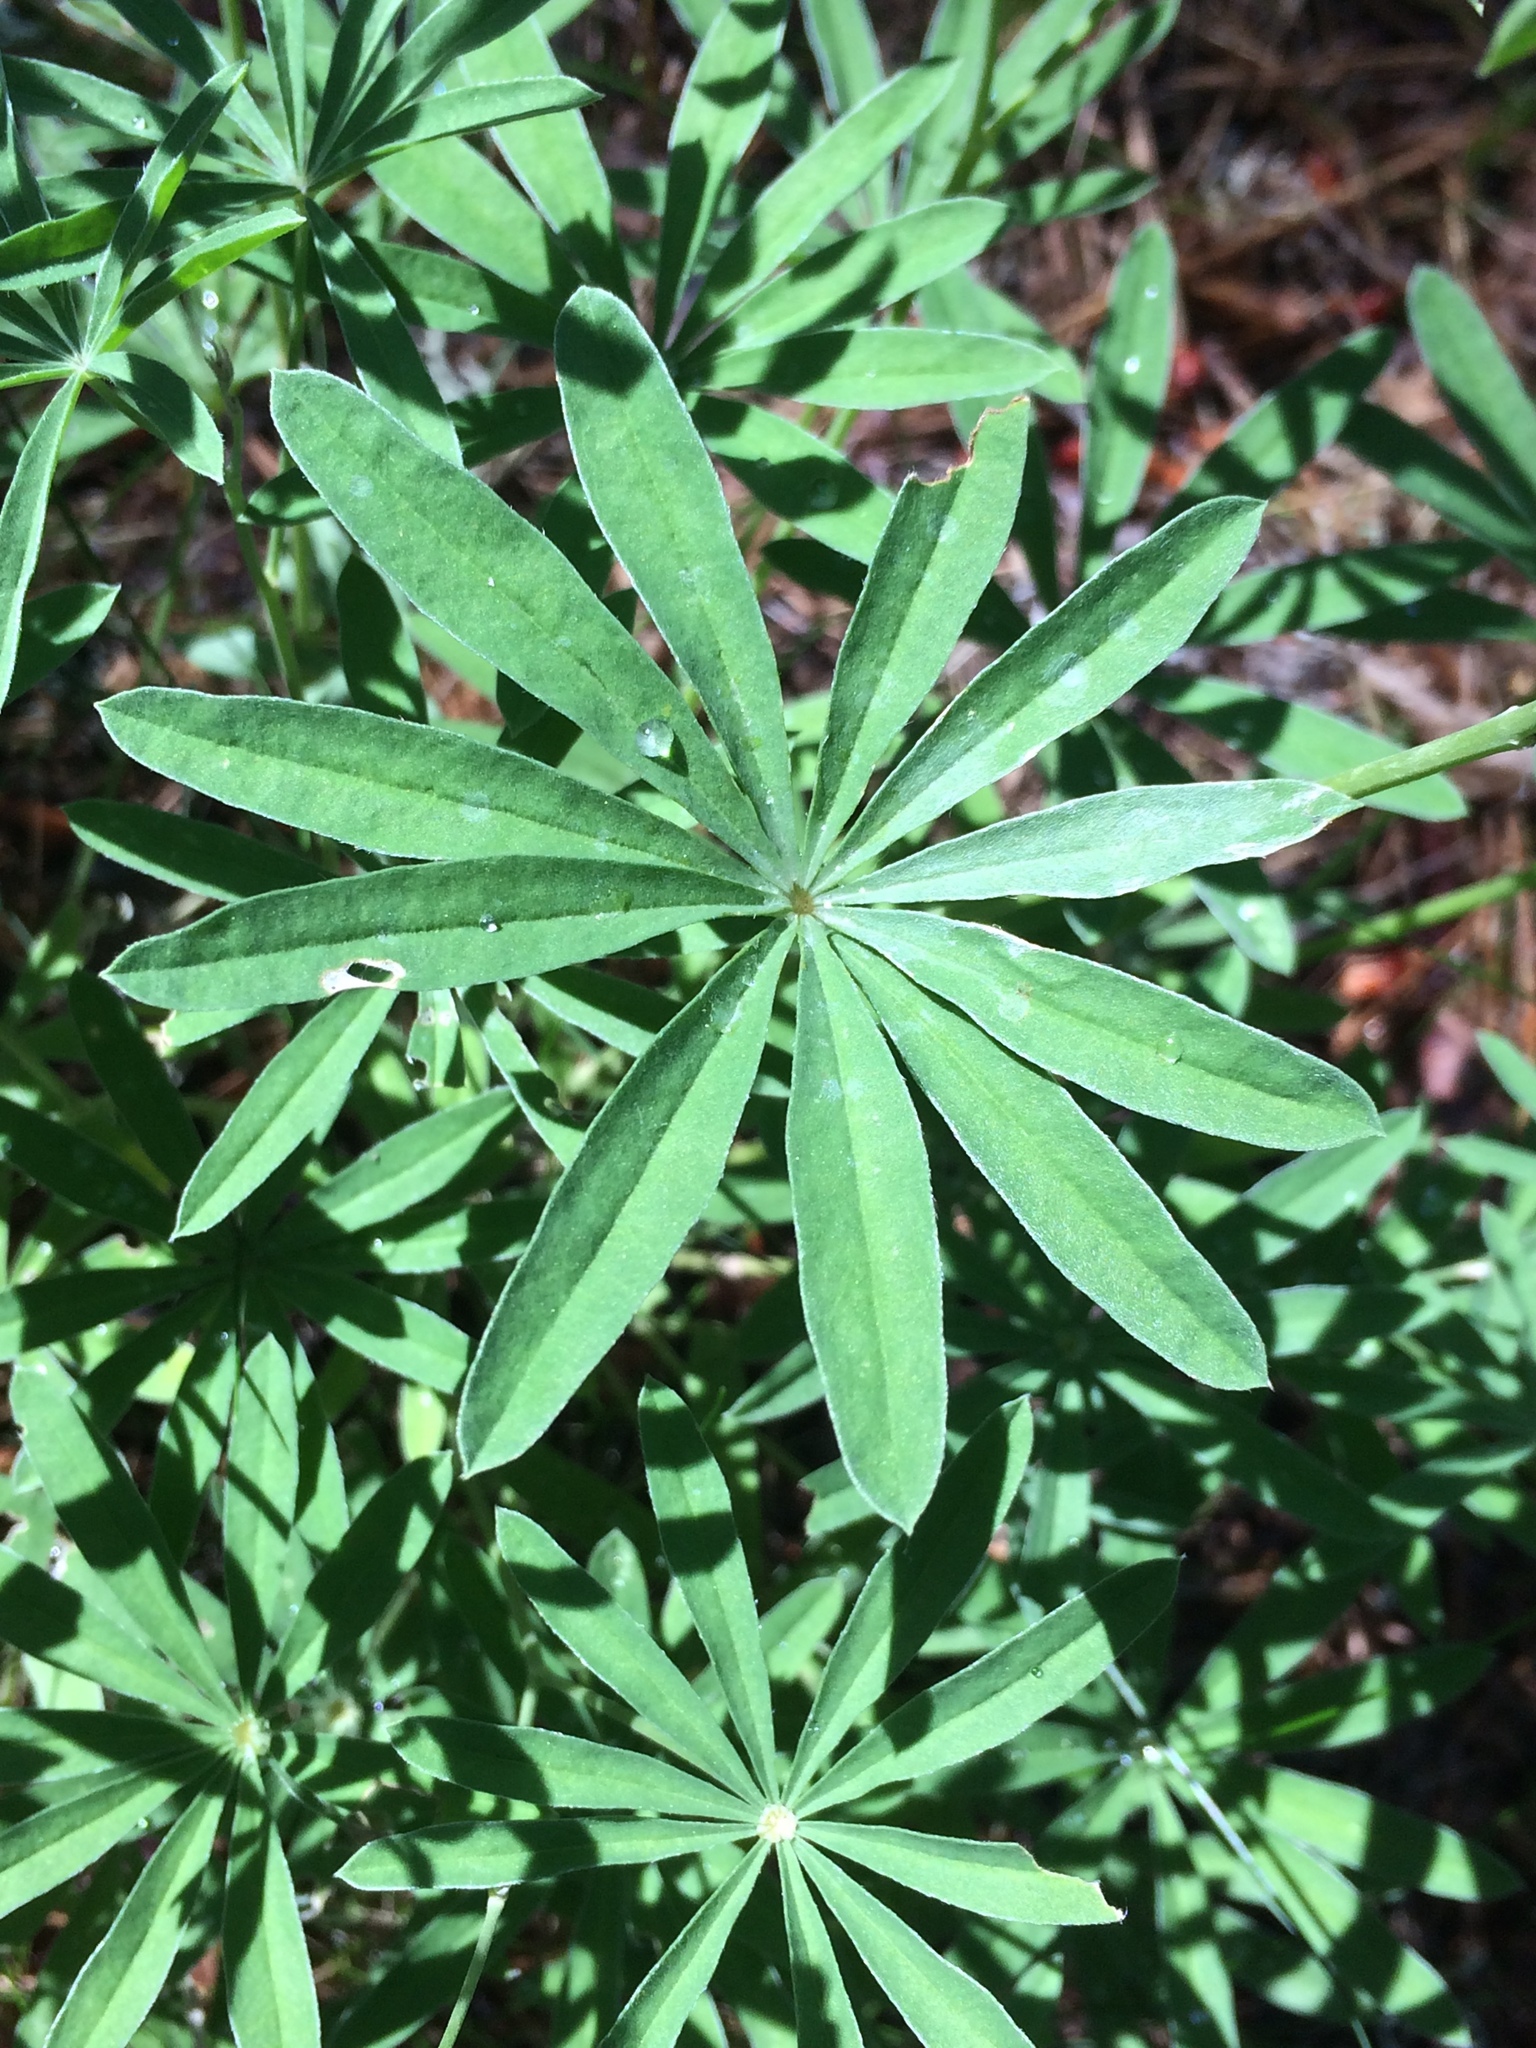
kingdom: Plantae
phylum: Tracheophyta
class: Magnoliopsida
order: Fabales
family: Fabaceae
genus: Lupinus
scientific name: Lupinus arbustus
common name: Montana lupine
